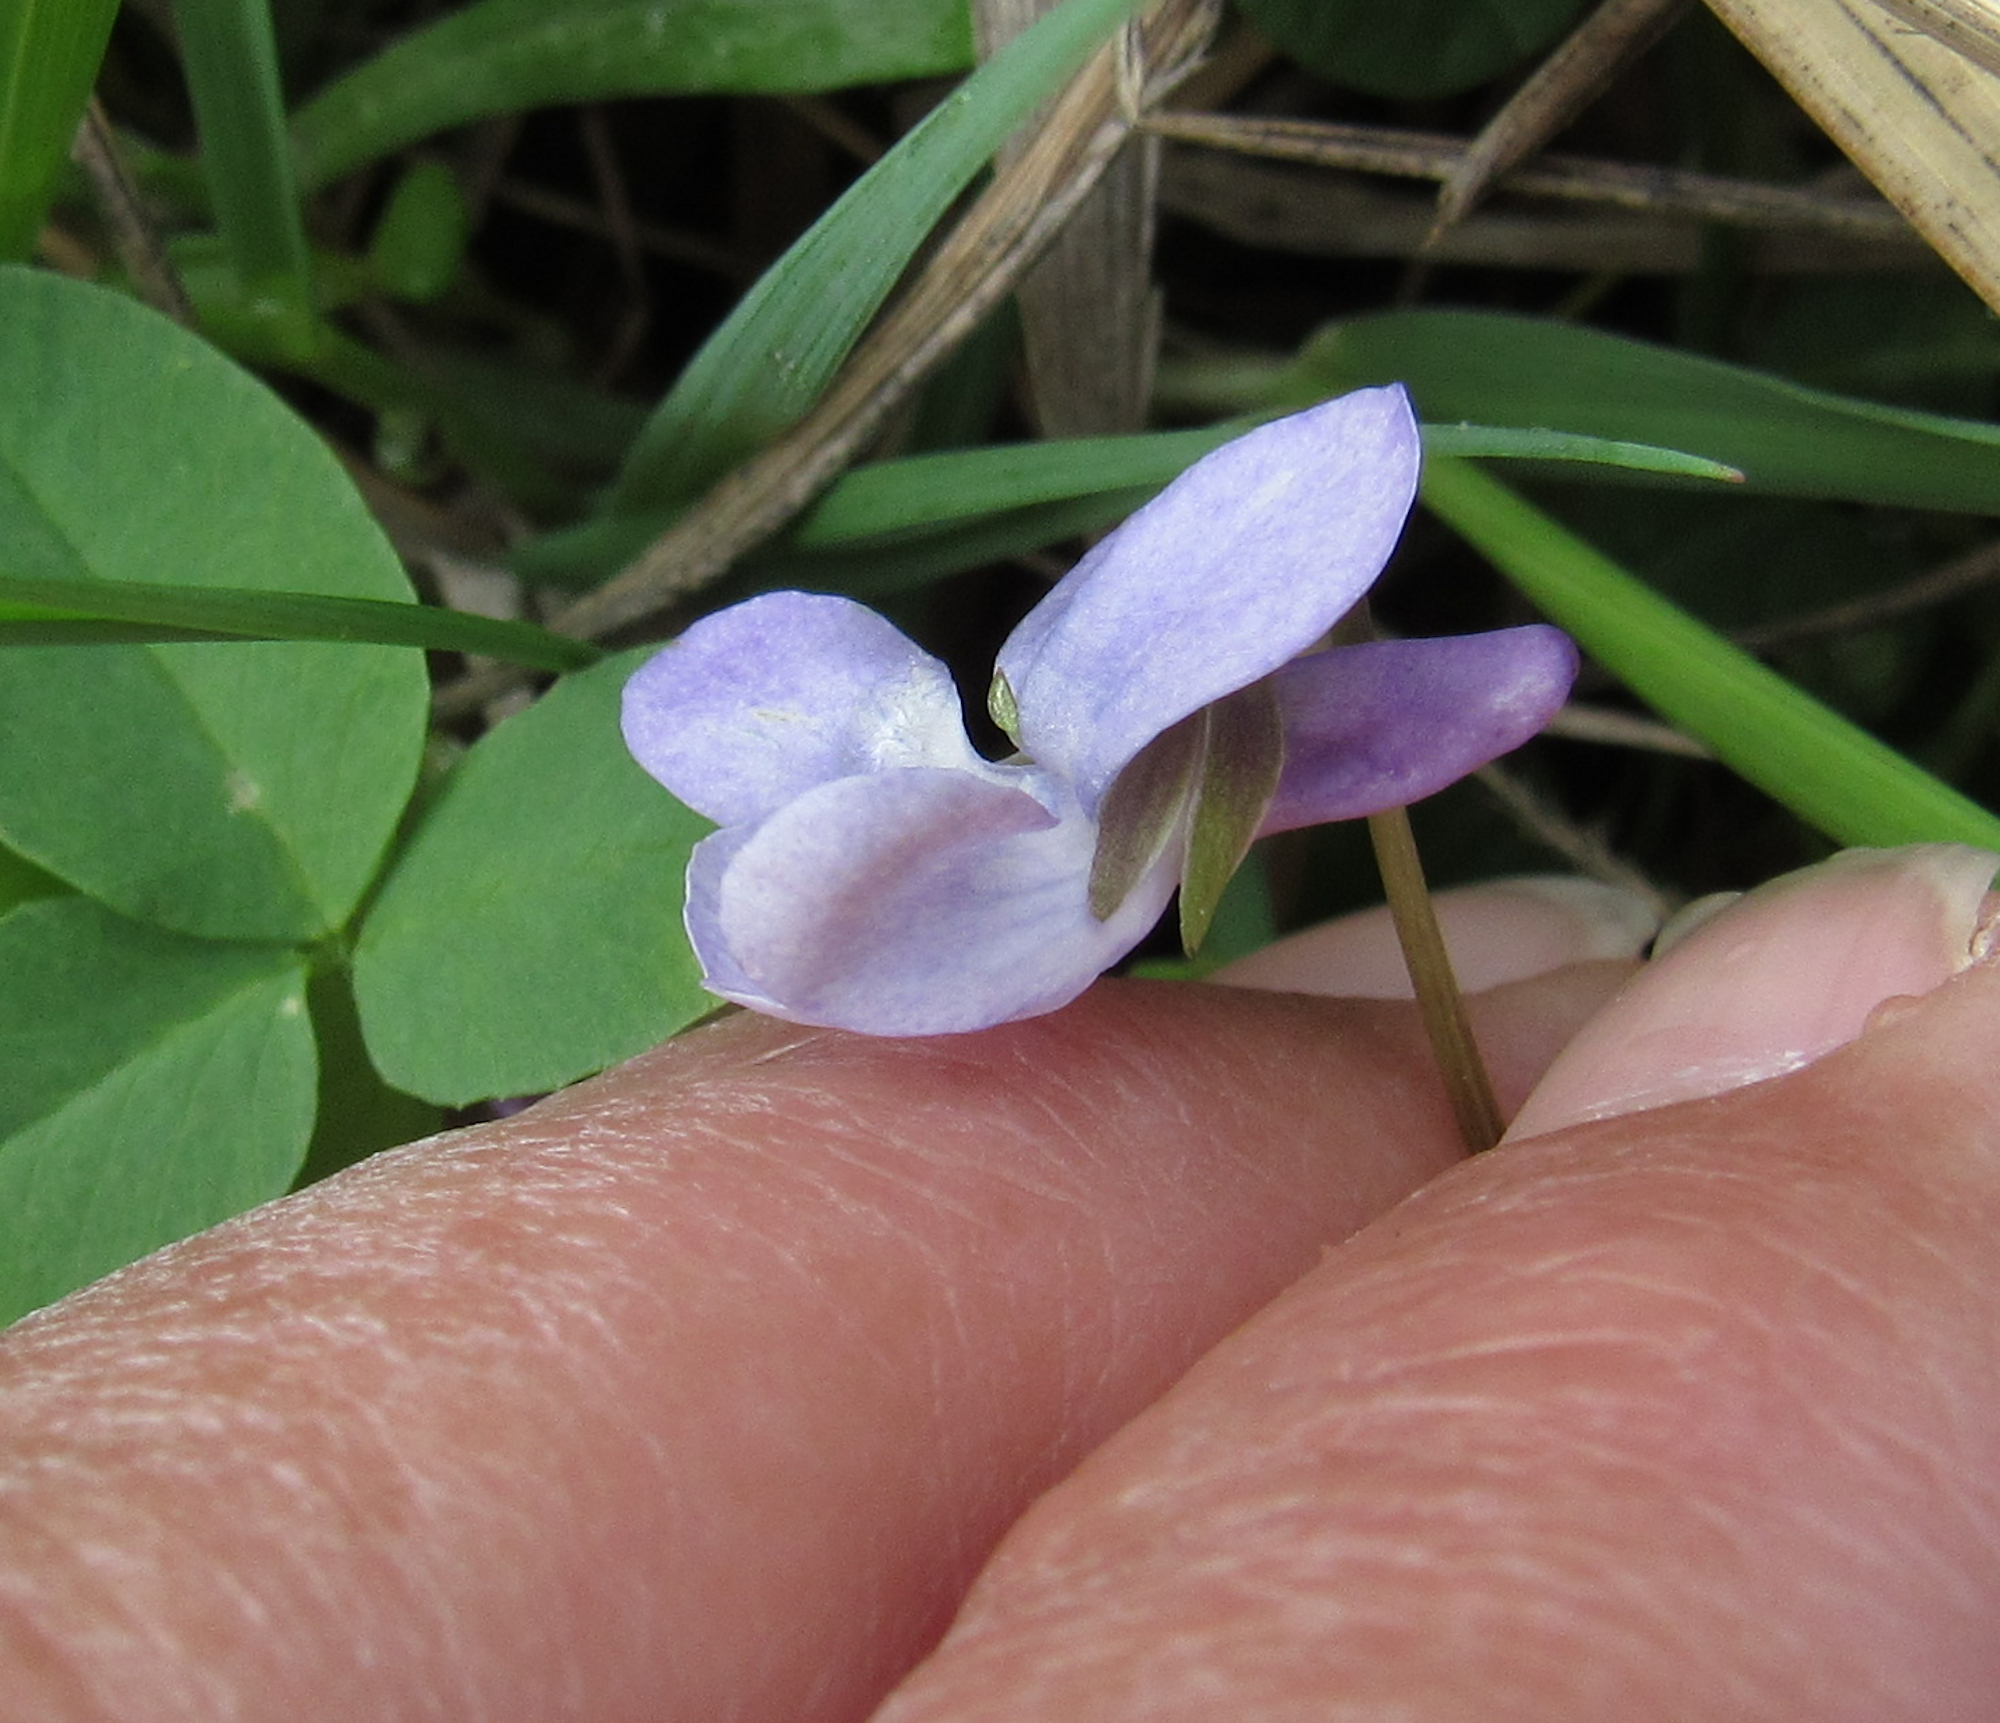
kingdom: Plantae
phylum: Tracheophyta
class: Magnoliopsida
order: Malpighiales
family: Violaceae
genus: Viola
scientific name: Viola adunca
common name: Sand violet
